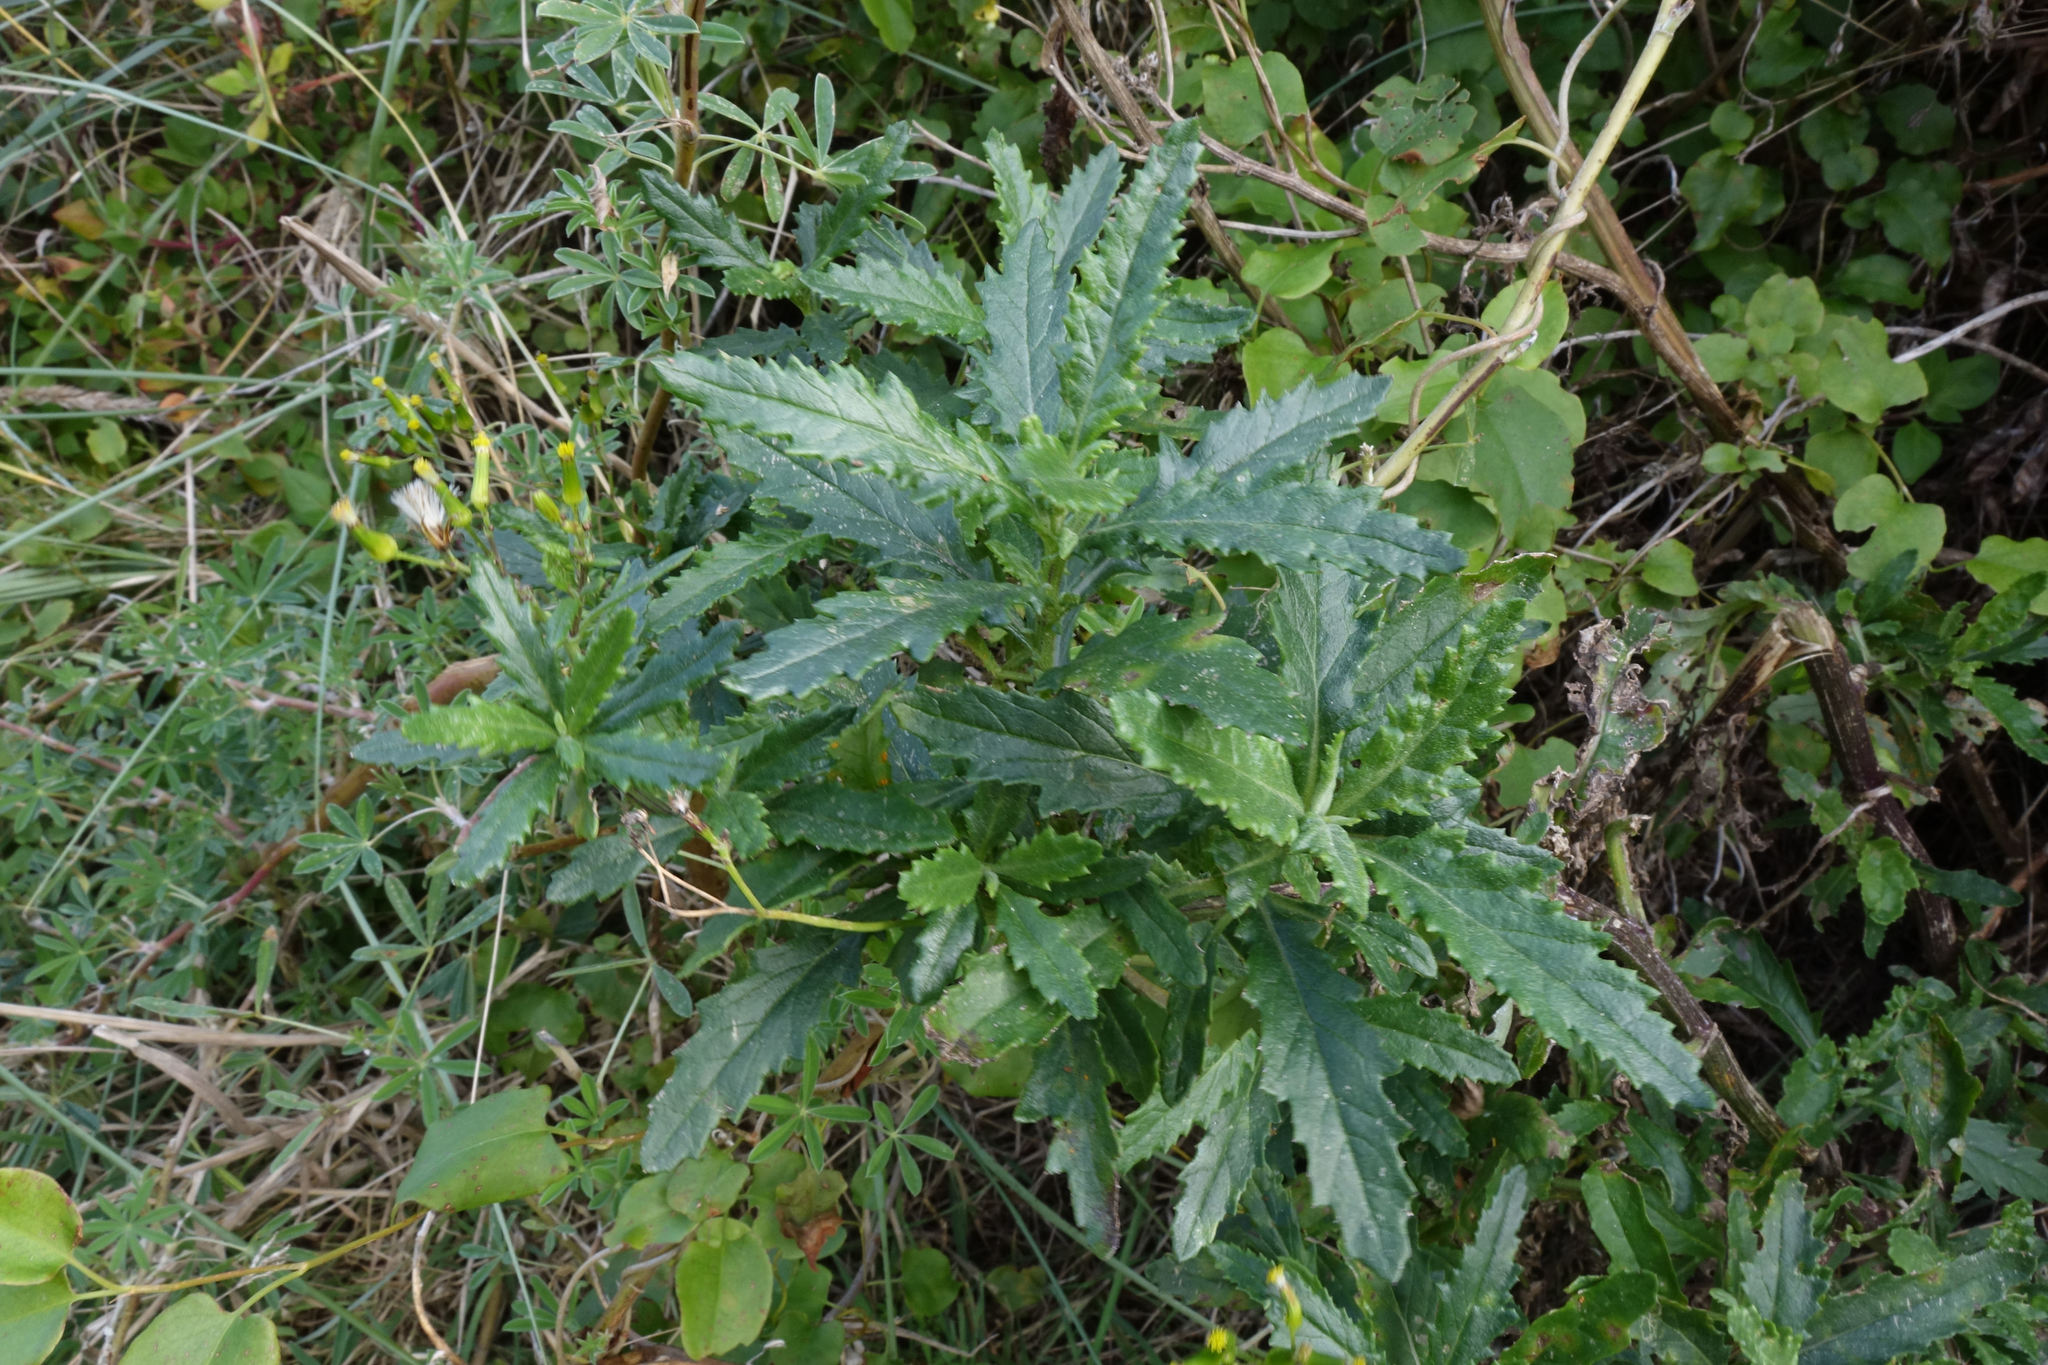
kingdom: Plantae
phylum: Tracheophyta
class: Magnoliopsida
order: Asterales
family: Asteraceae
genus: Senecio
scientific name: Senecio biserratus
